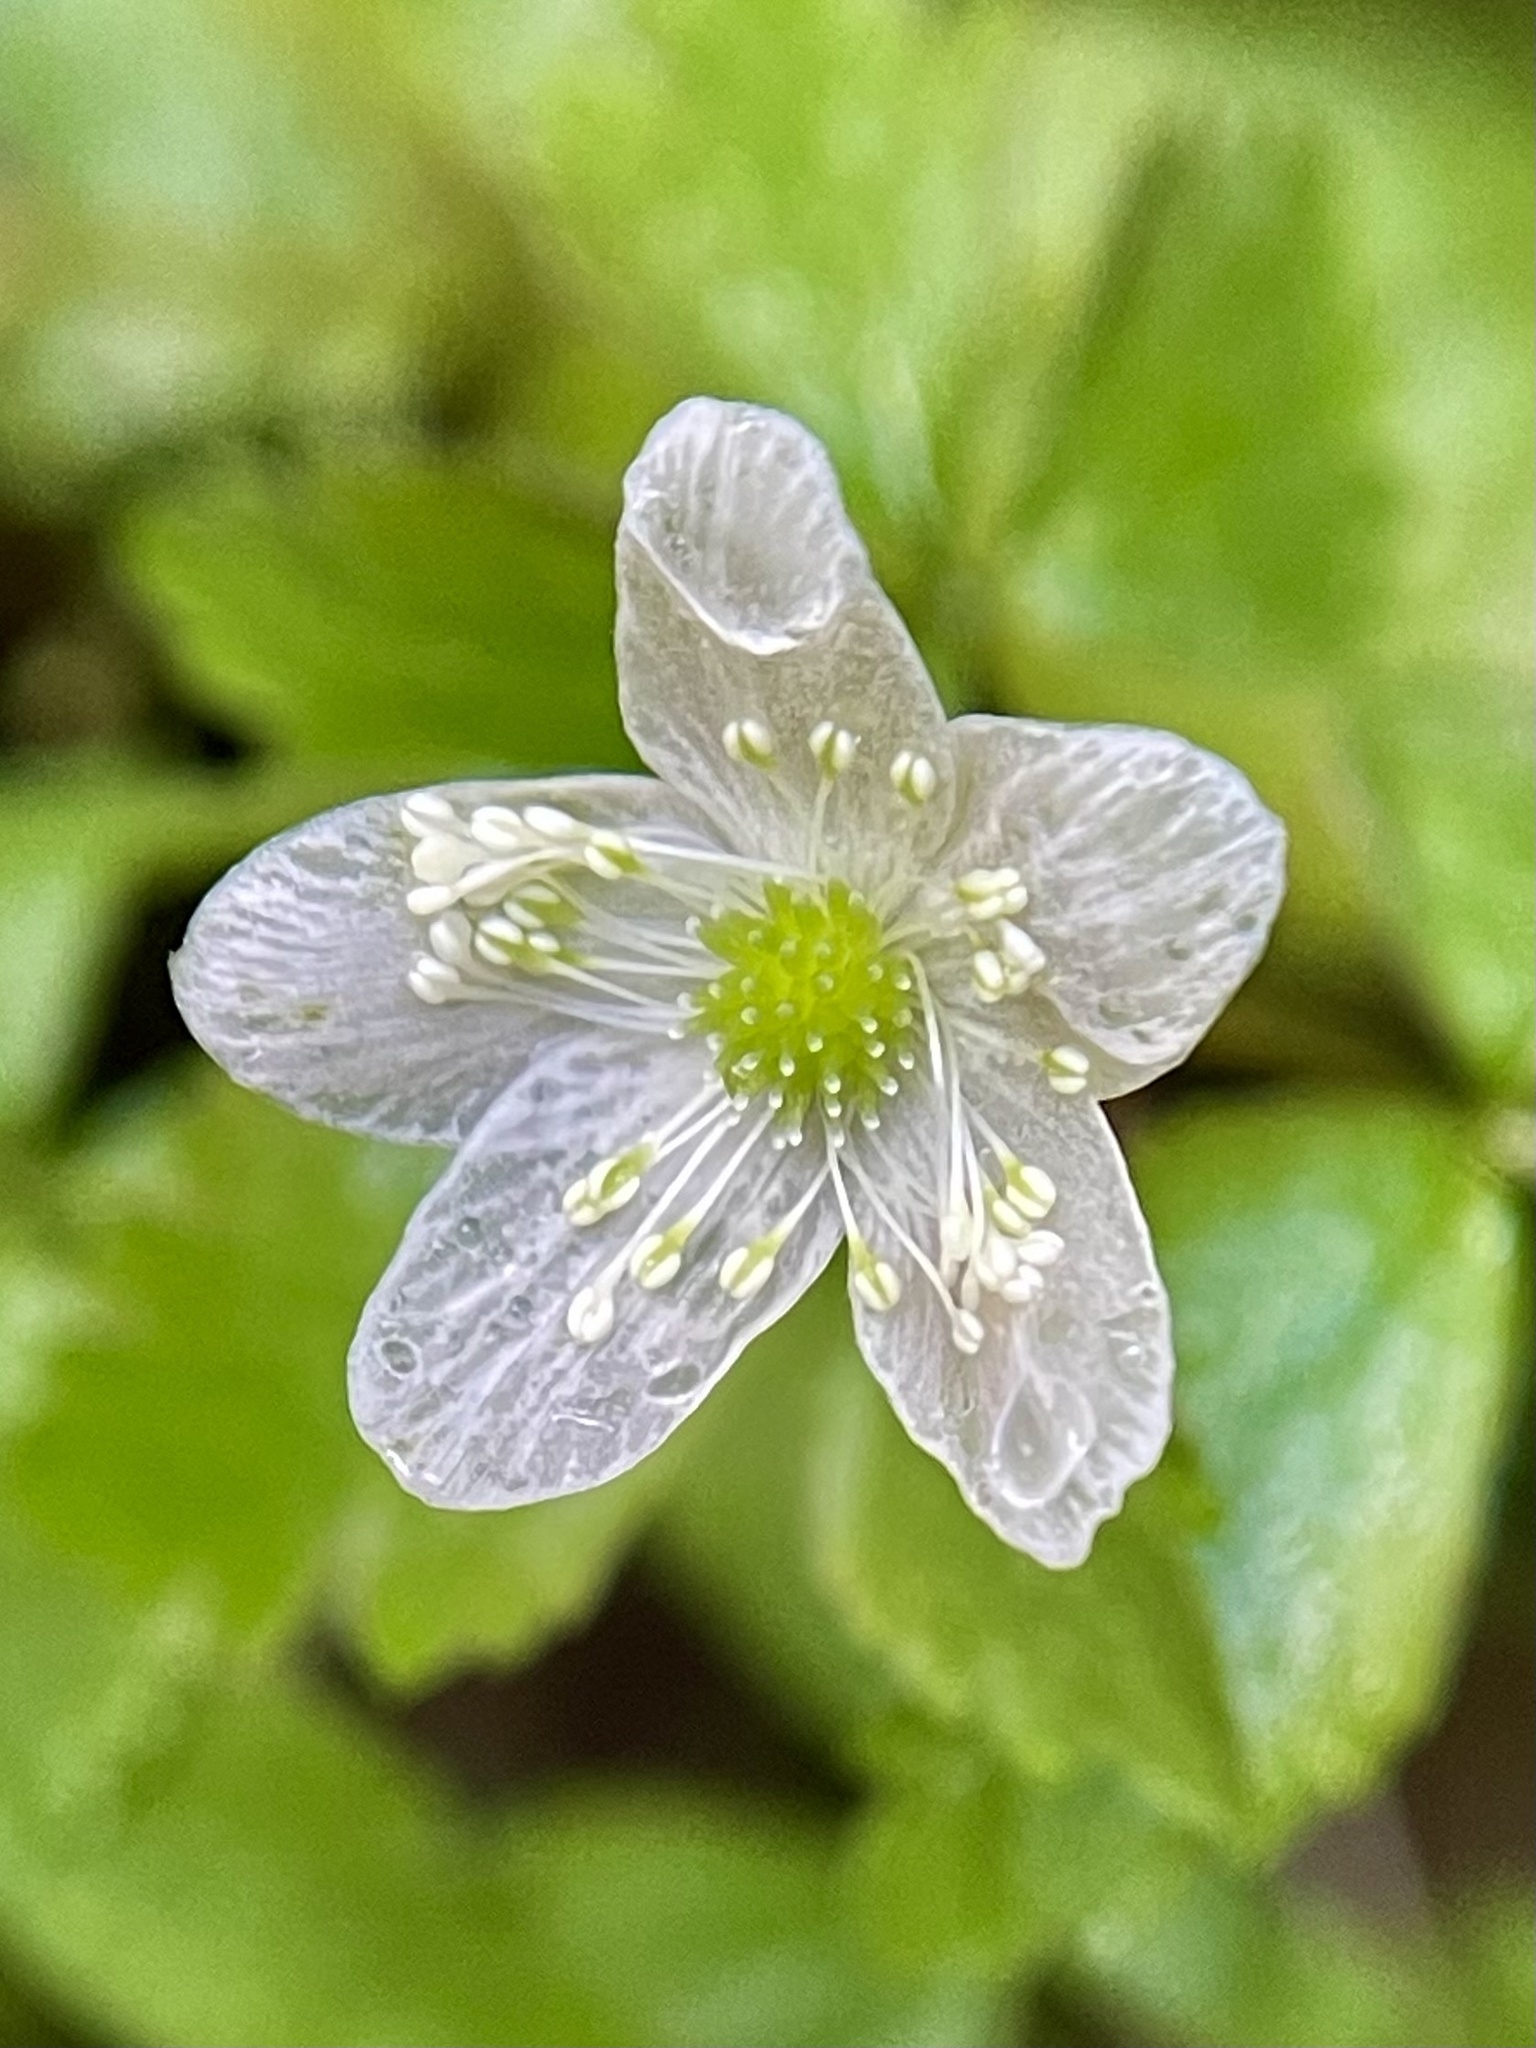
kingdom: Plantae
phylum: Tracheophyta
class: Magnoliopsida
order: Ranunculales
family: Ranunculaceae
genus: Anemone
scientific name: Anemone
